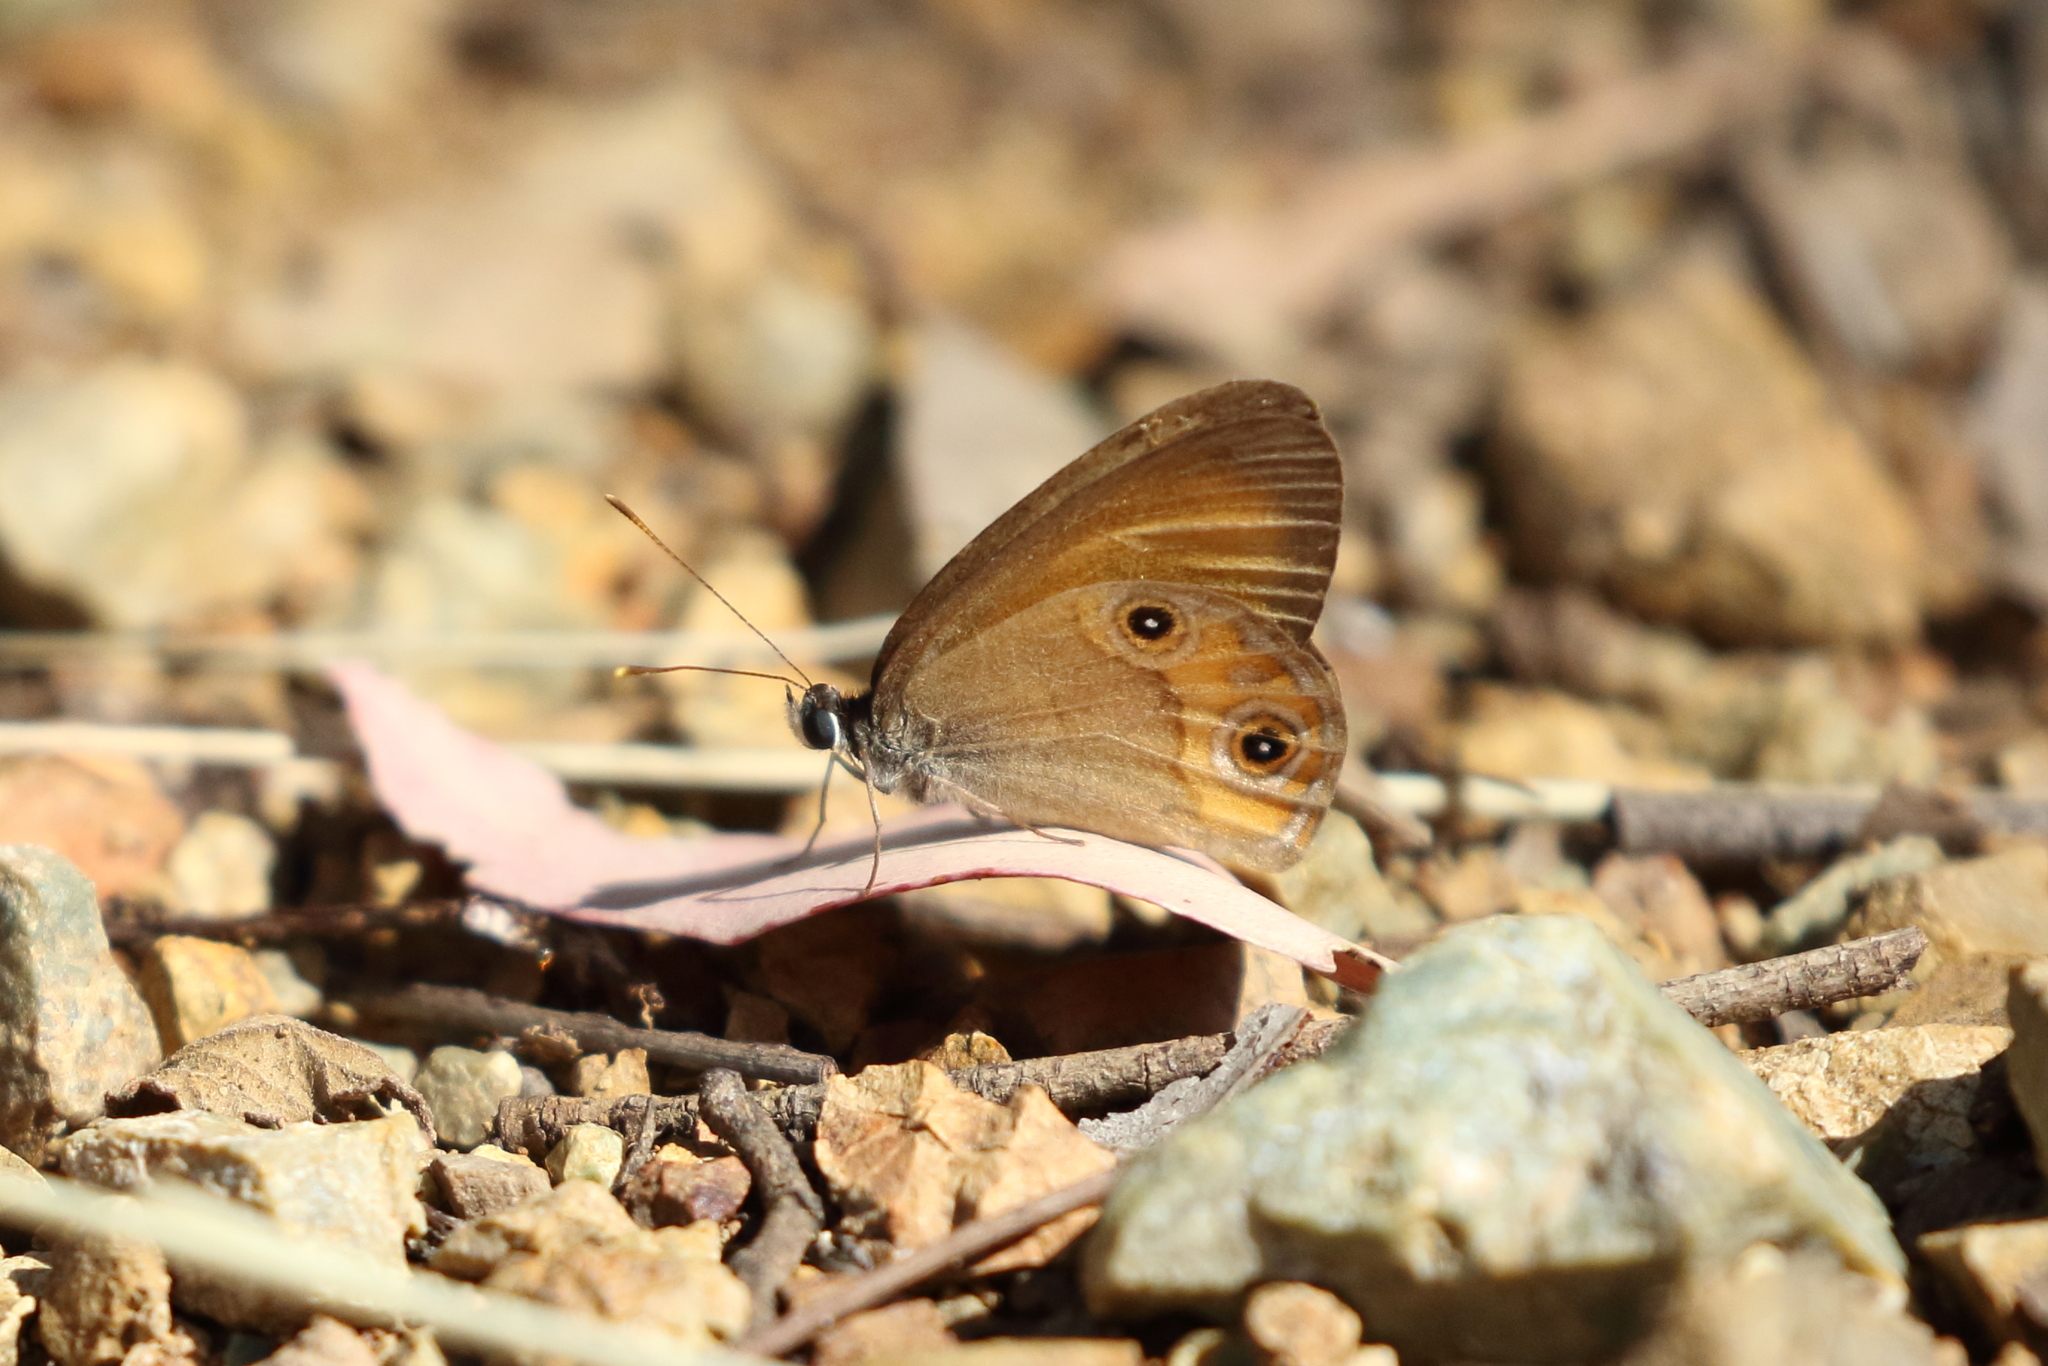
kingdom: Animalia
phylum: Arthropoda
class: Insecta
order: Lepidoptera
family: Nymphalidae
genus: Hypocysta
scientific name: Hypocysta adiante
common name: Orange ringlet
